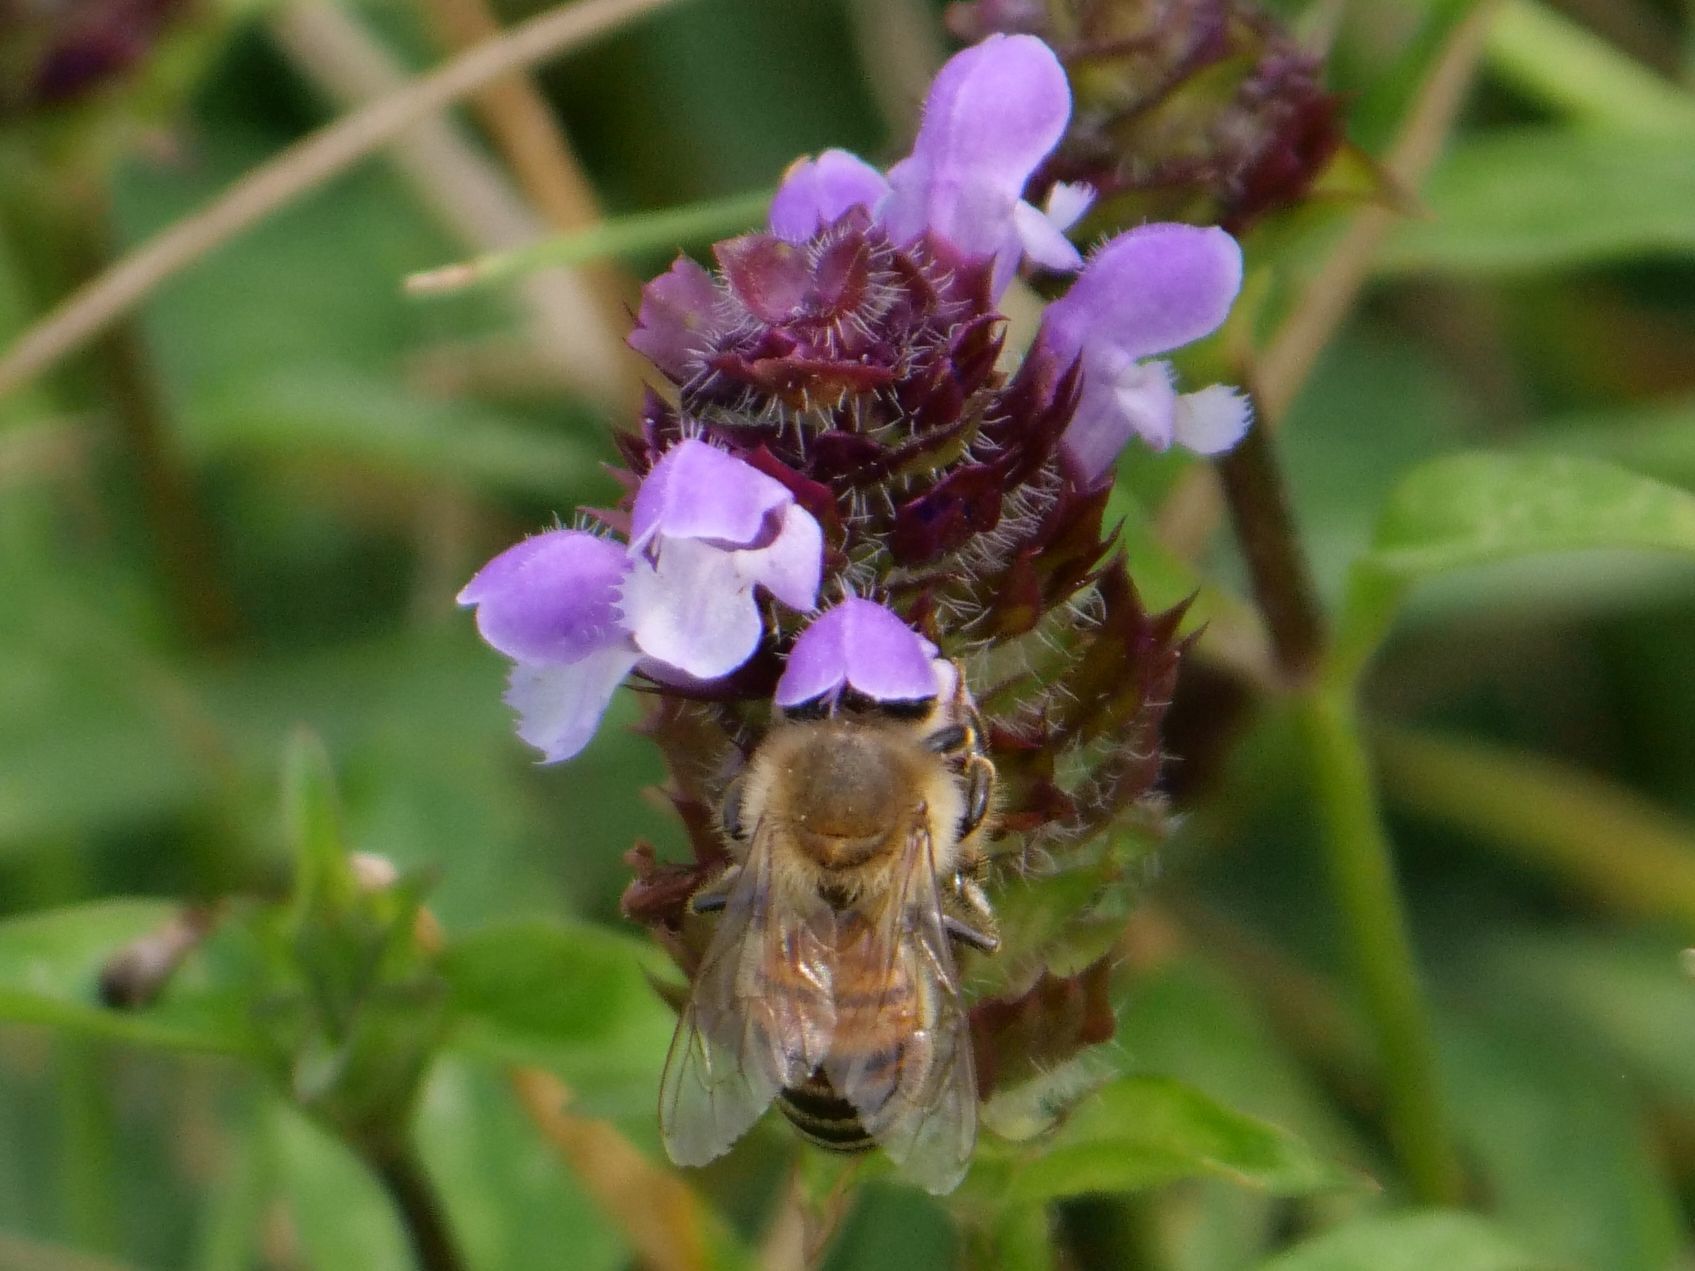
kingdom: Animalia
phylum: Arthropoda
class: Insecta
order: Hymenoptera
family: Apidae
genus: Apis
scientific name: Apis mellifera
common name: Honey bee
